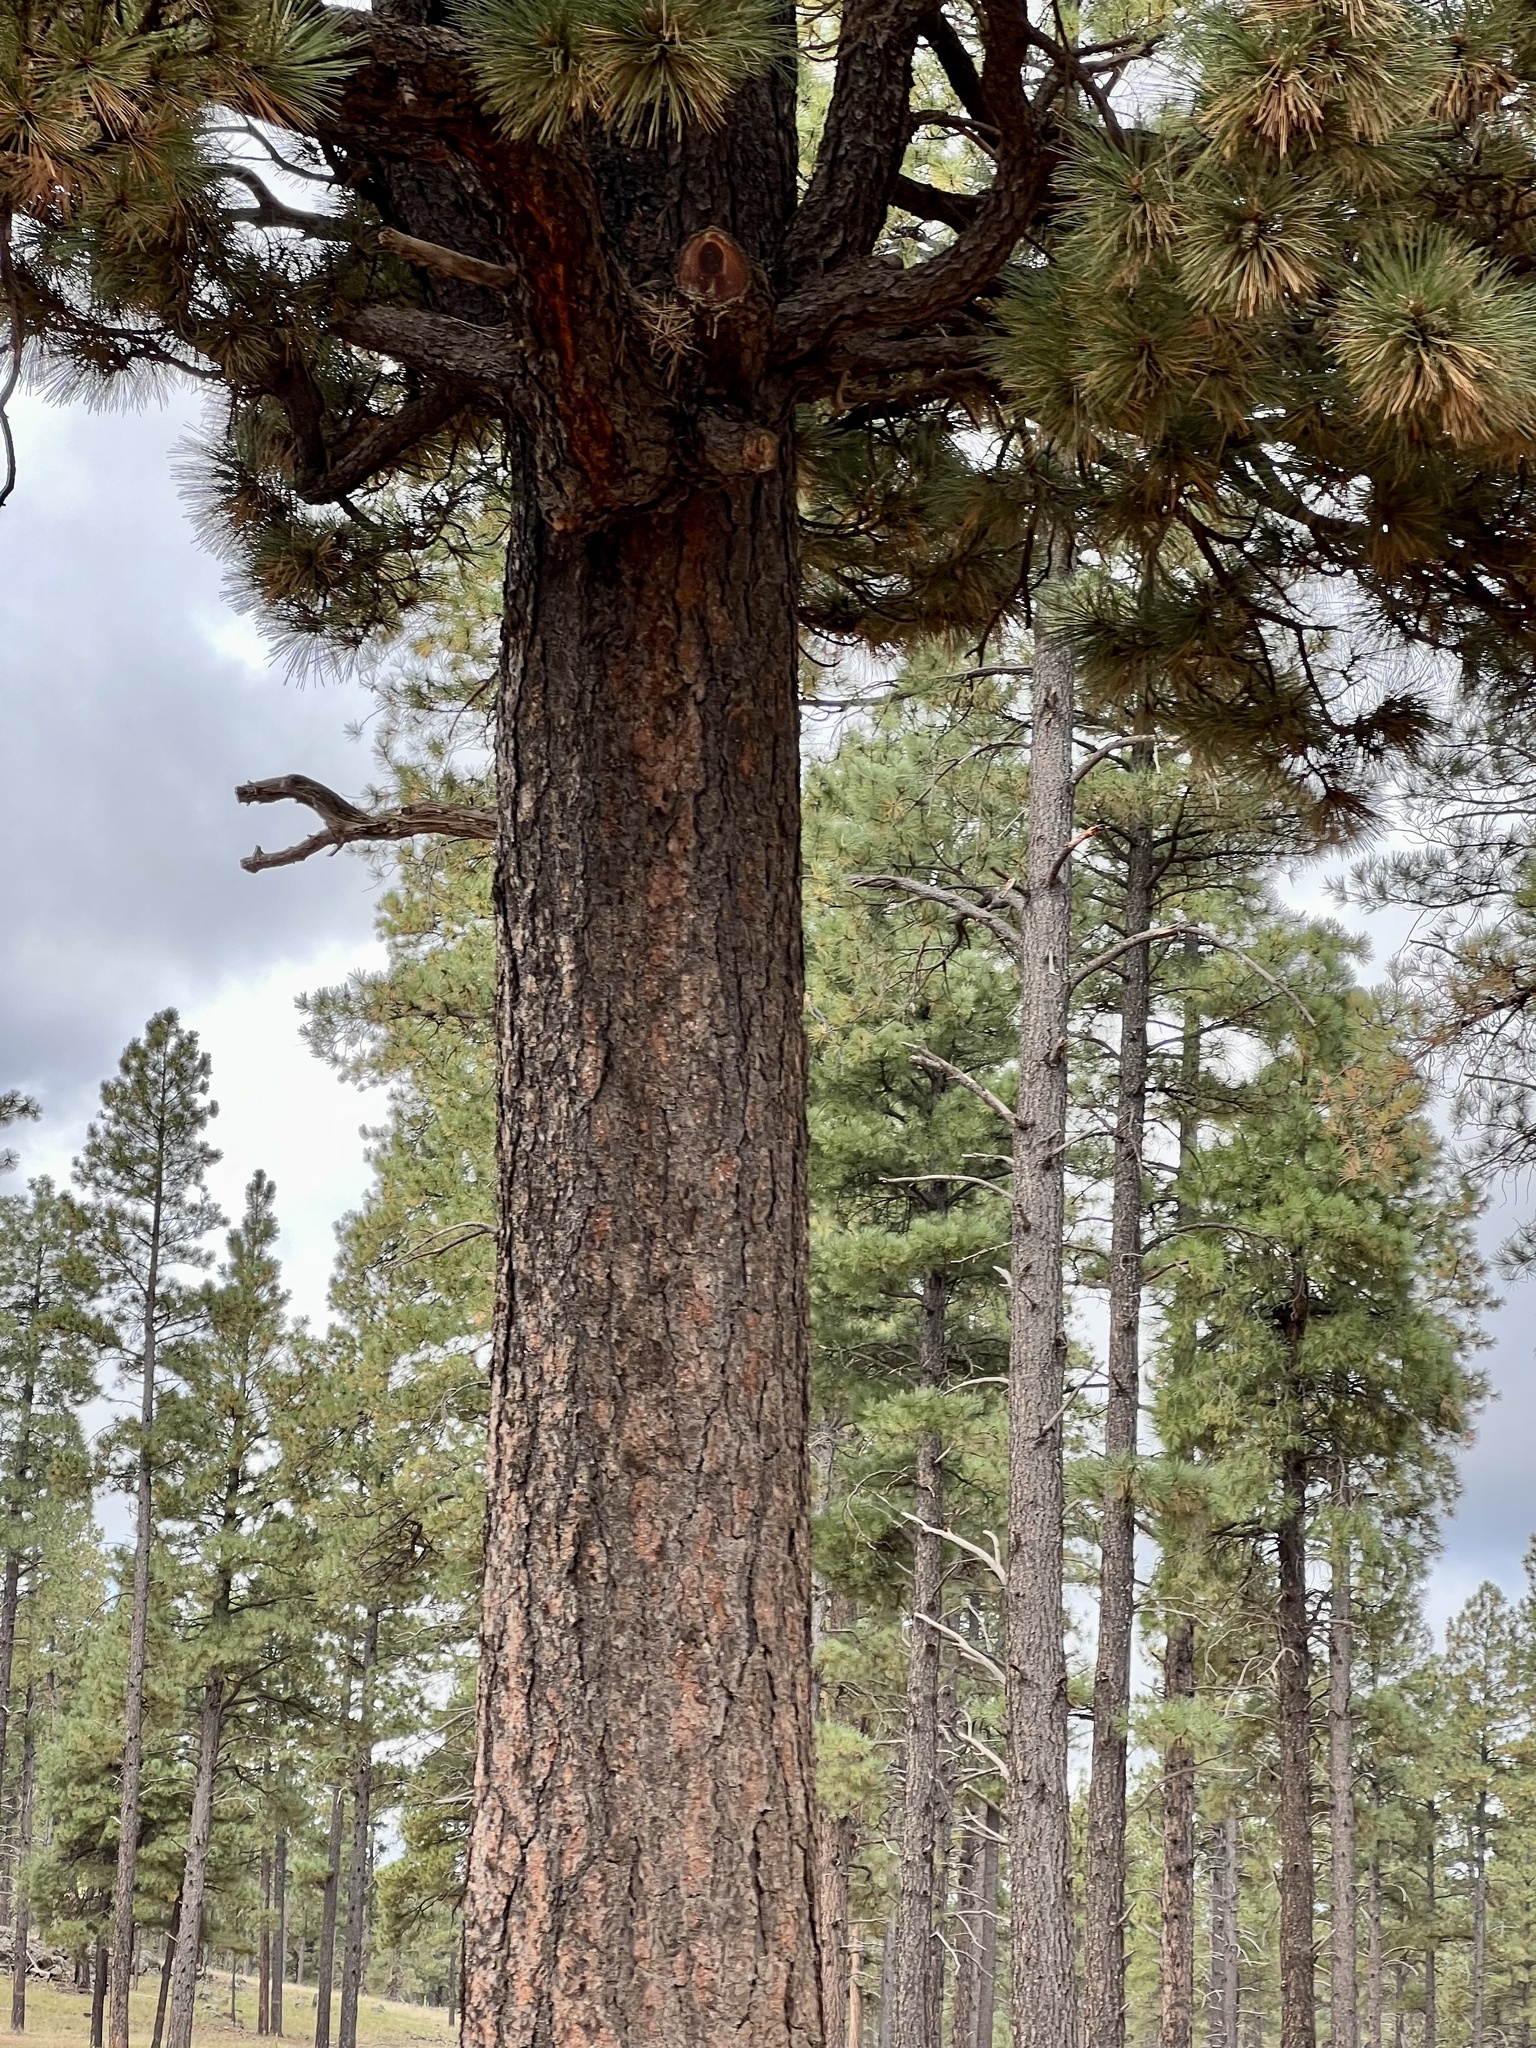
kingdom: Plantae
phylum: Tracheophyta
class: Pinopsida
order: Pinales
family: Pinaceae
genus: Pinus
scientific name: Pinus ponderosa
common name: Western yellow-pine
